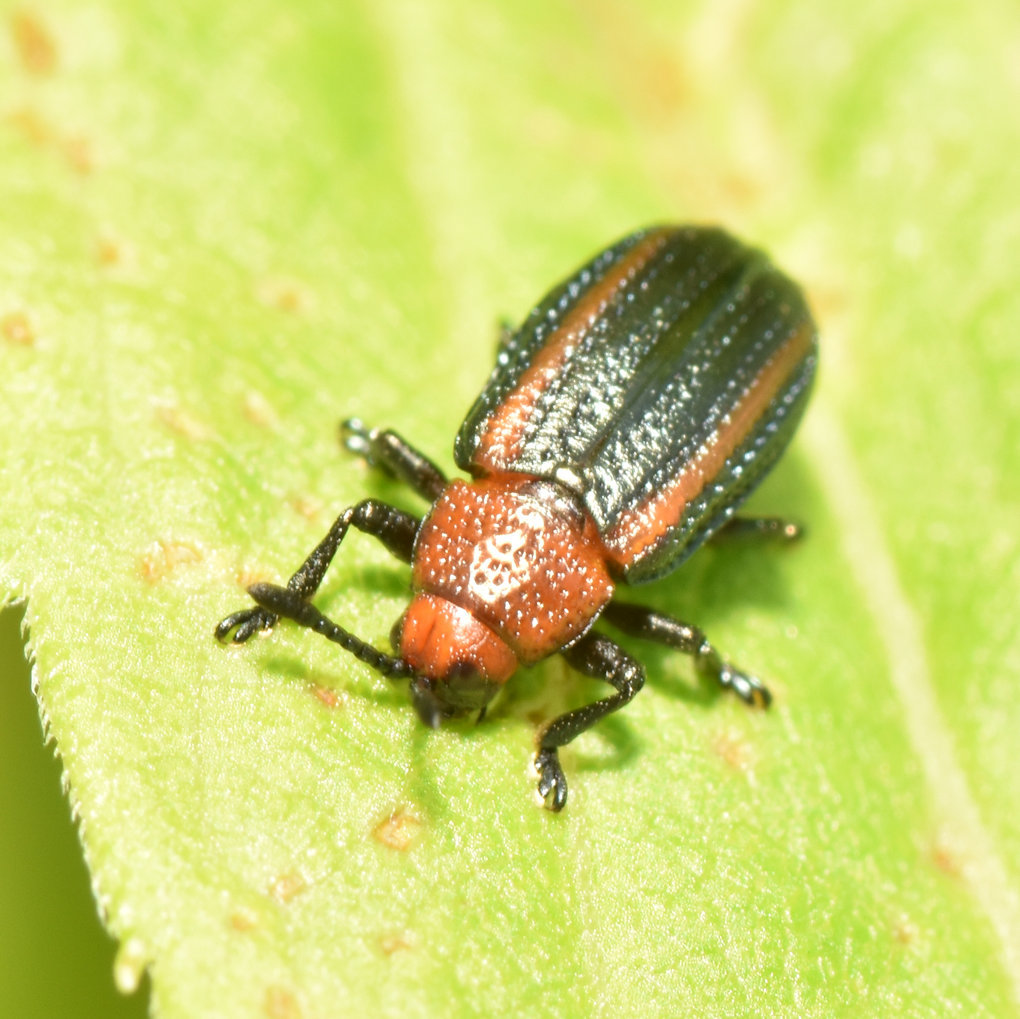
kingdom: Animalia
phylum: Arthropoda
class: Insecta
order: Coleoptera
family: Chrysomelidae
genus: Microrhopala
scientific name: Microrhopala vittata
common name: Goldenrod leaf miner beetle
